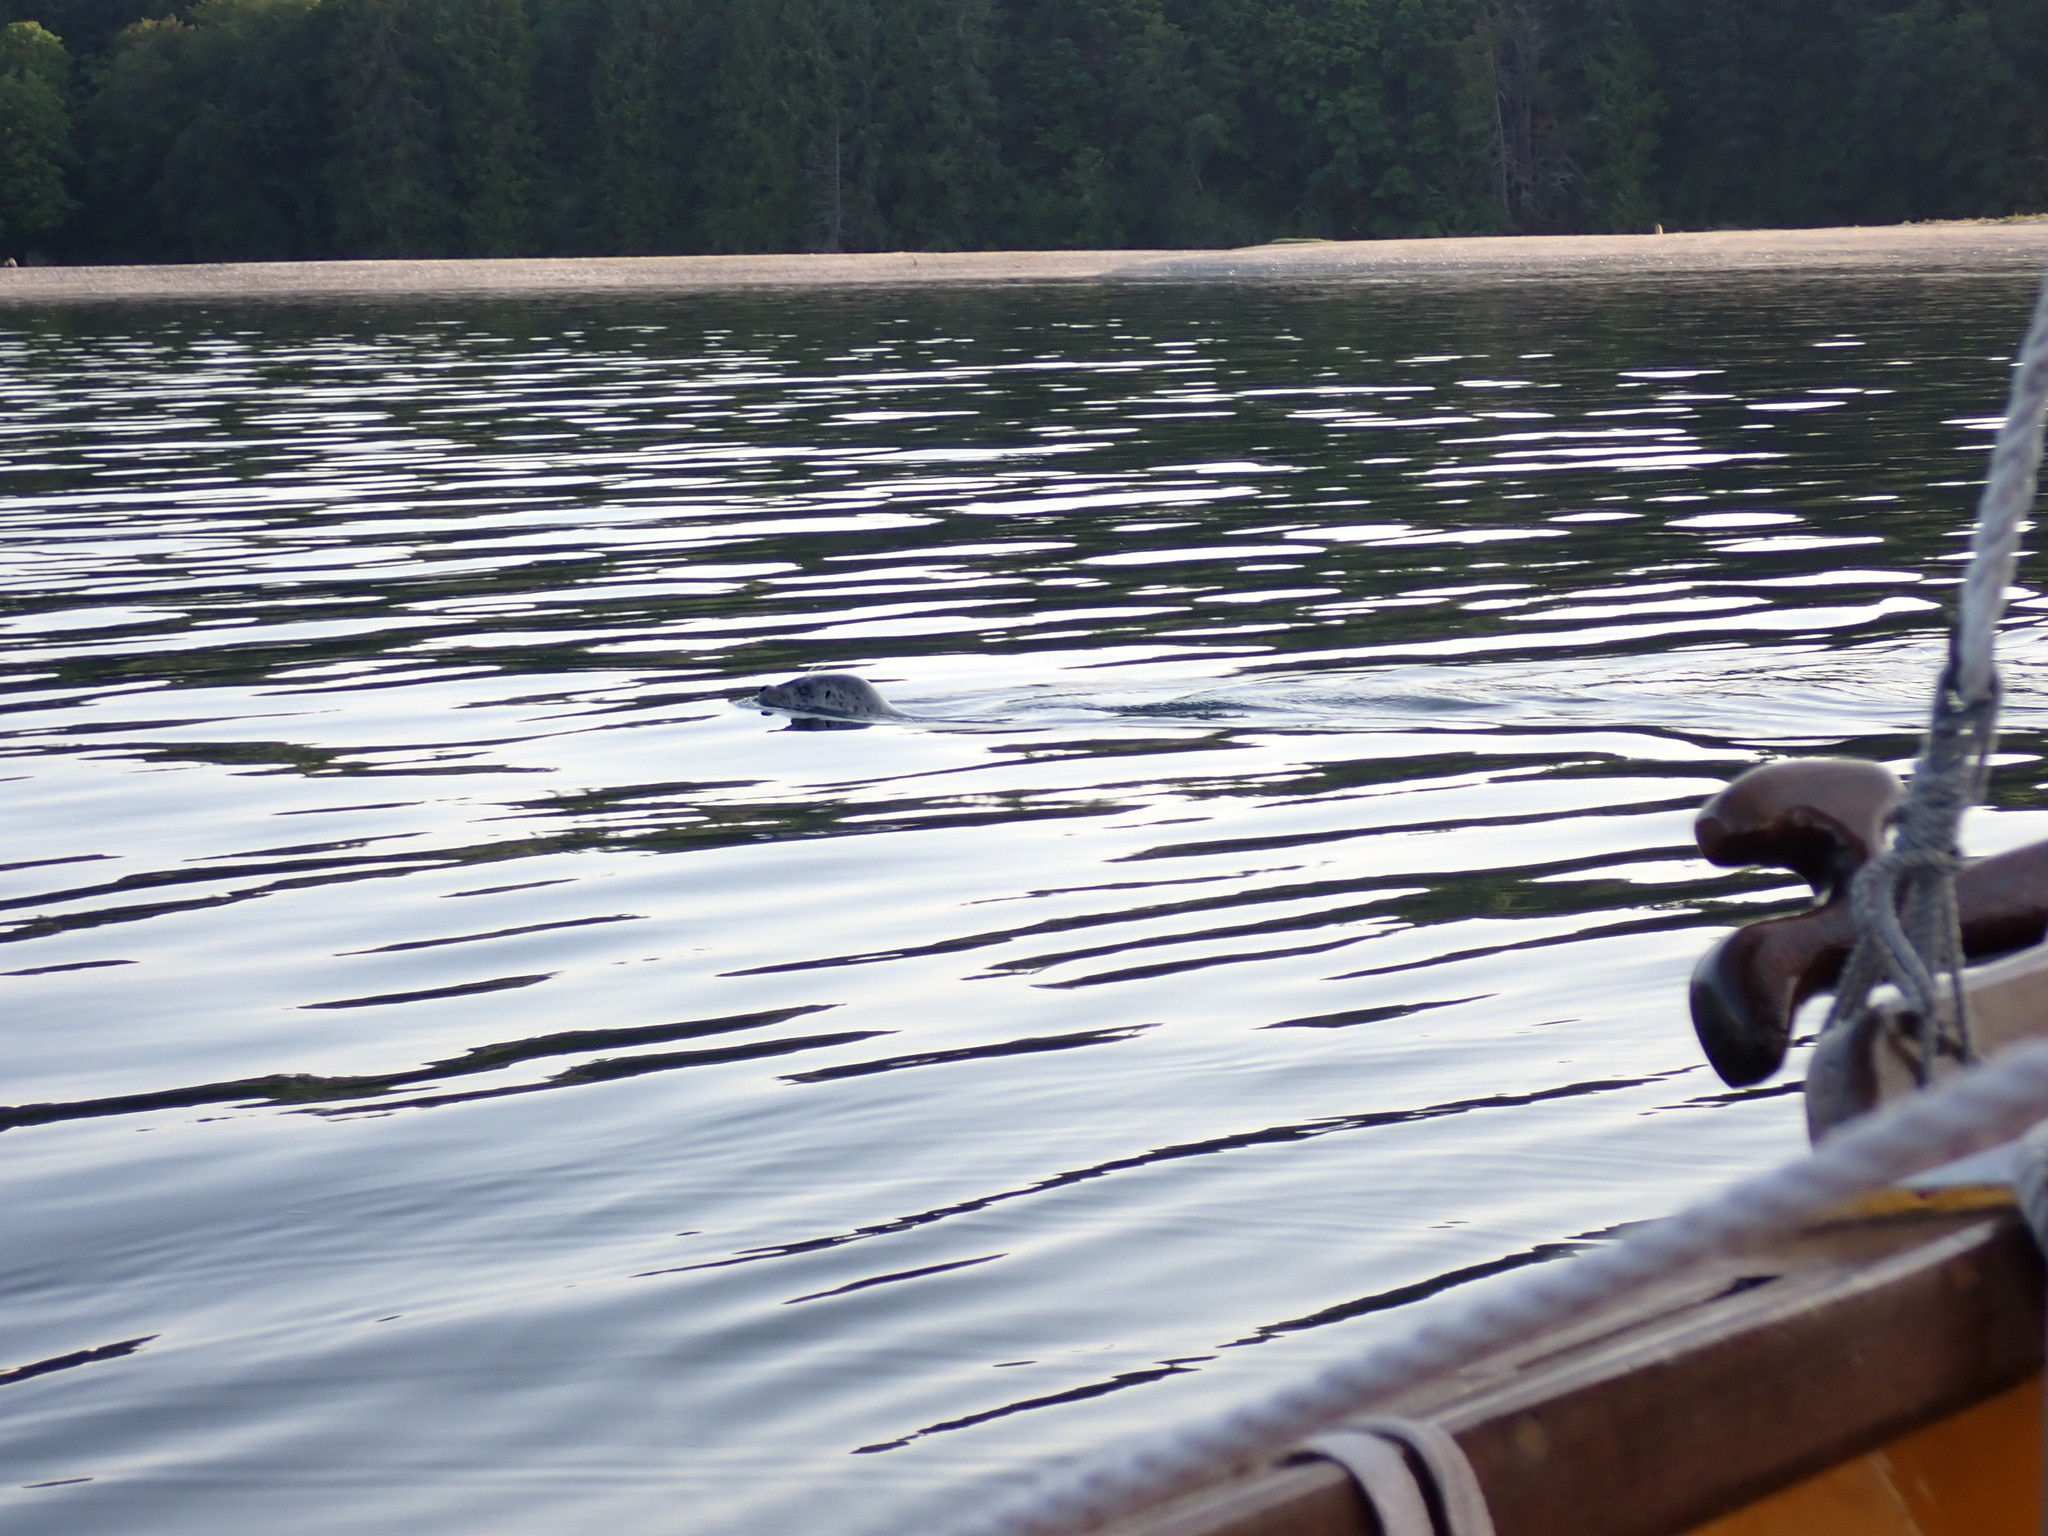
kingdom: Animalia
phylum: Chordata
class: Mammalia
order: Carnivora
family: Phocidae
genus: Phoca
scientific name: Phoca vitulina
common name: Harbor seal
